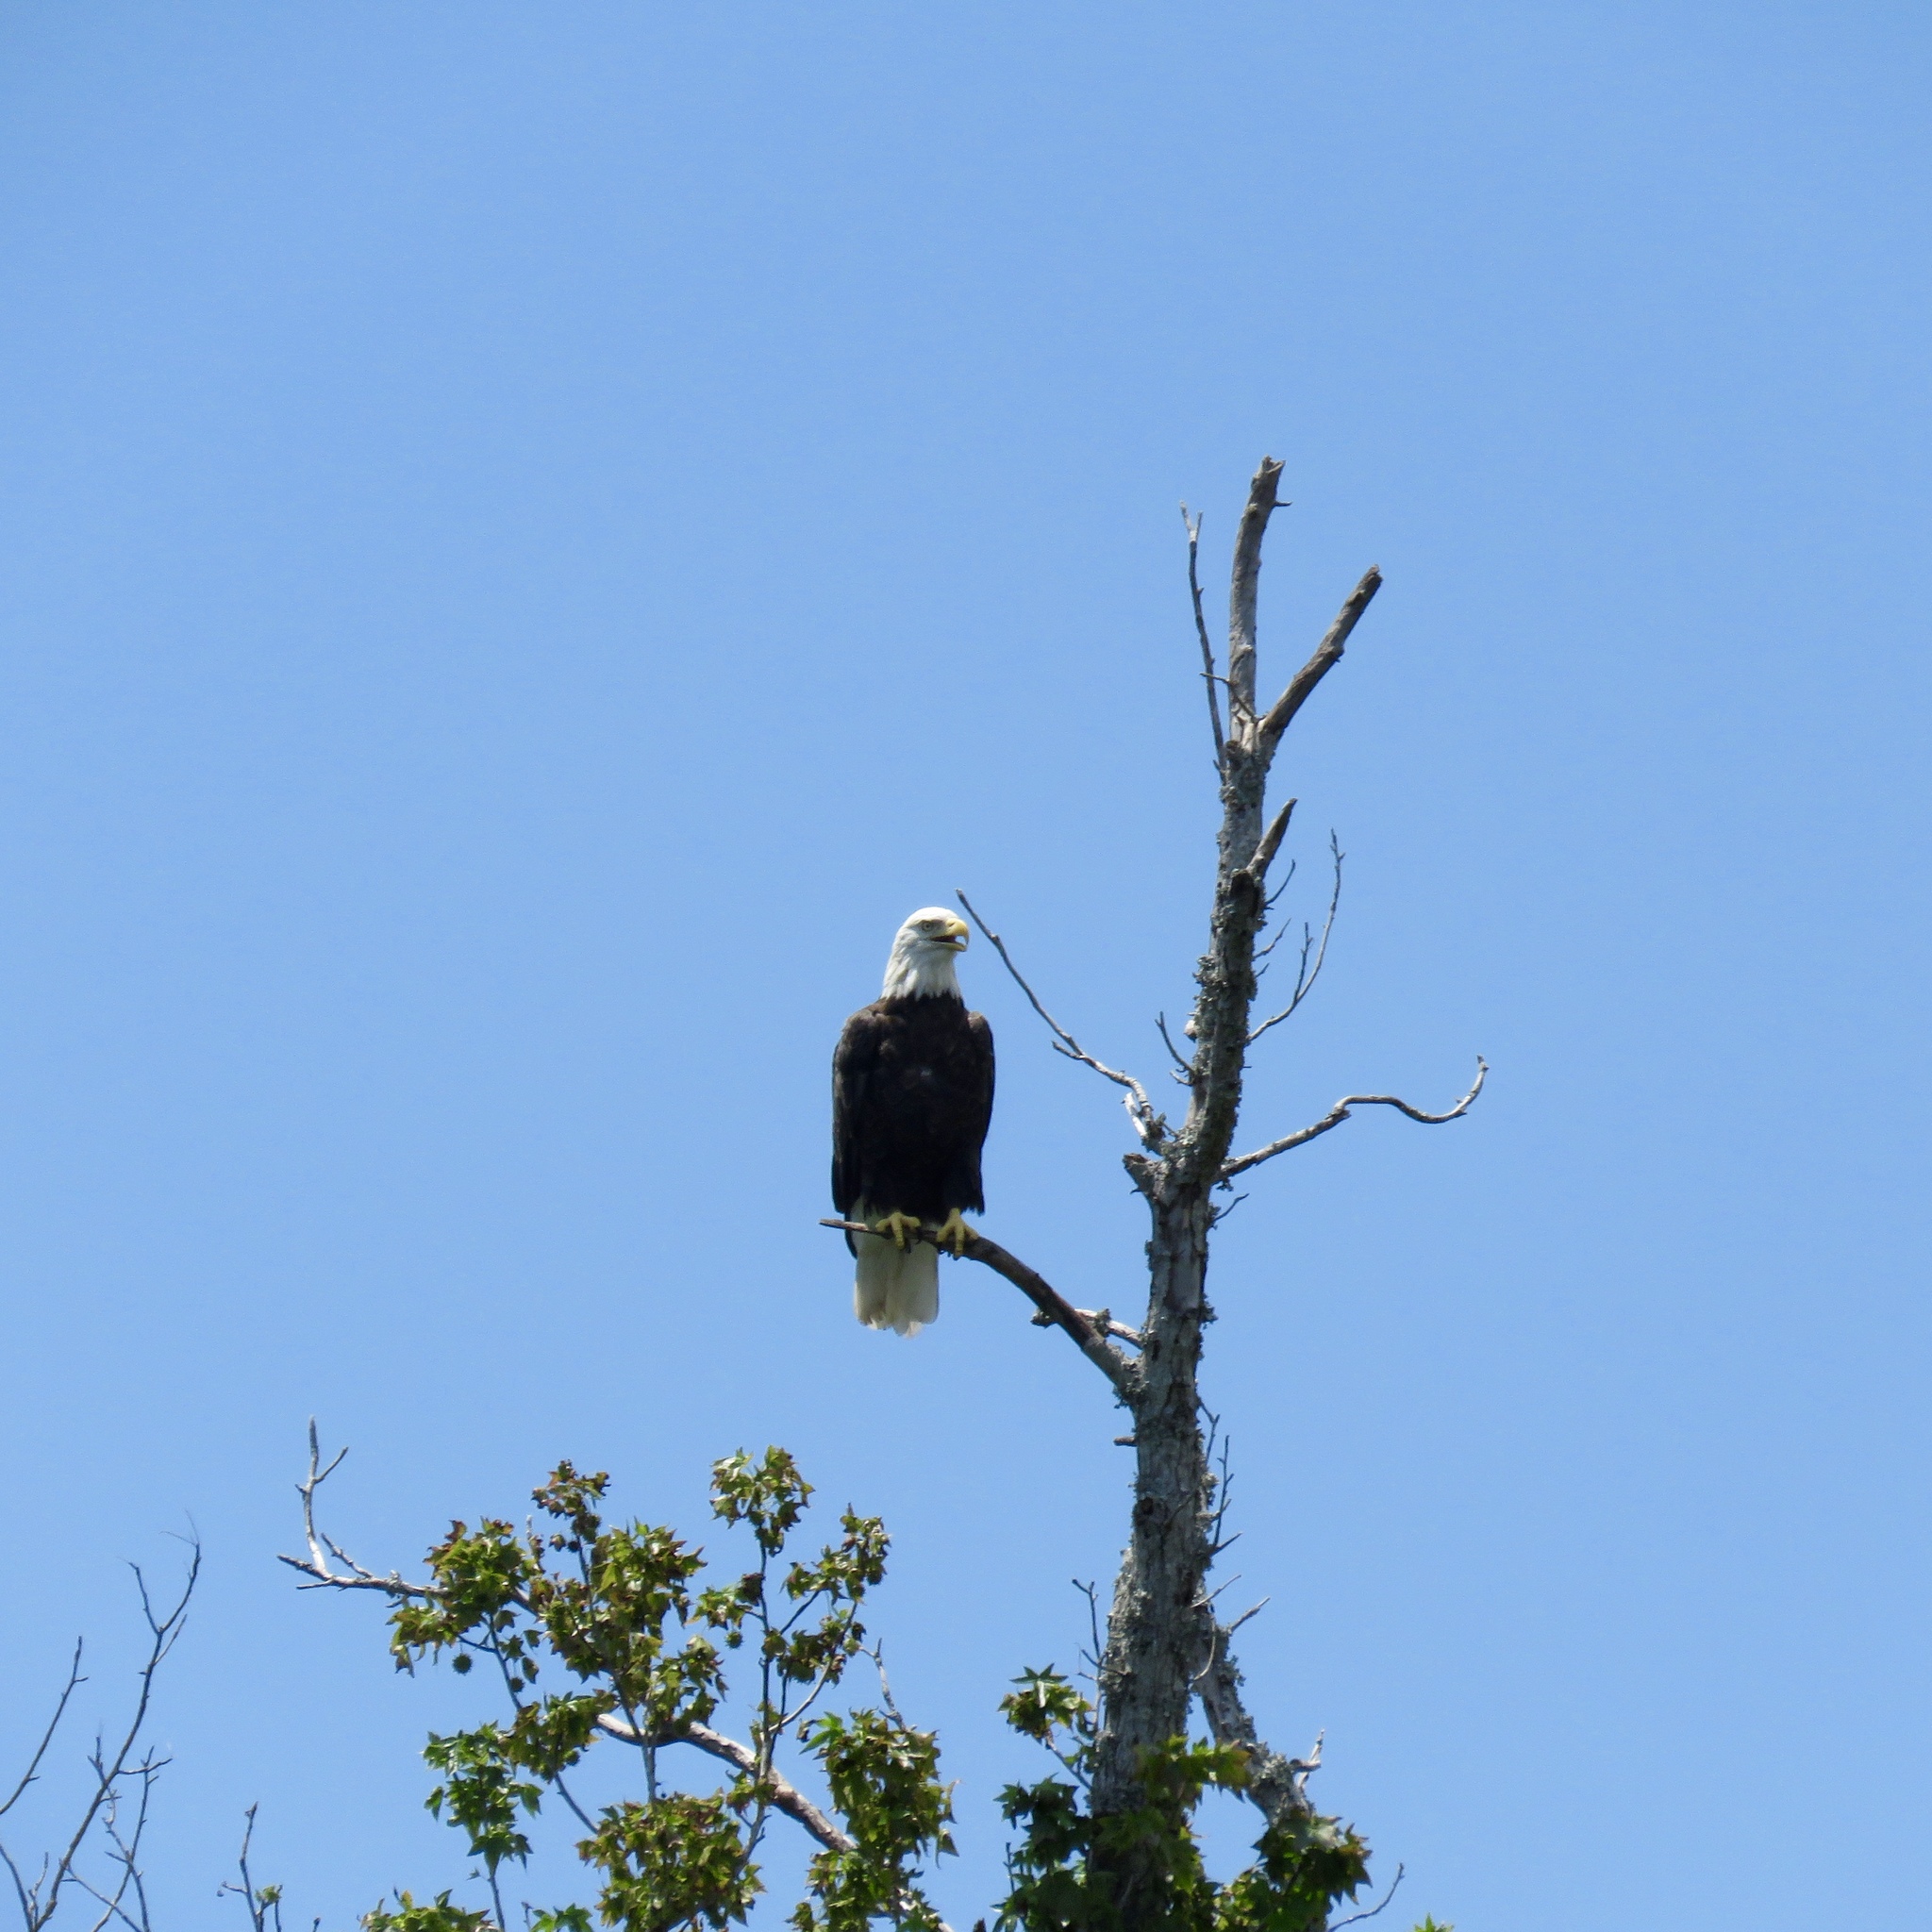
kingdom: Animalia
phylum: Chordata
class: Aves
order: Accipitriformes
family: Accipitridae
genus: Haliaeetus
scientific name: Haliaeetus leucocephalus
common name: Bald eagle
